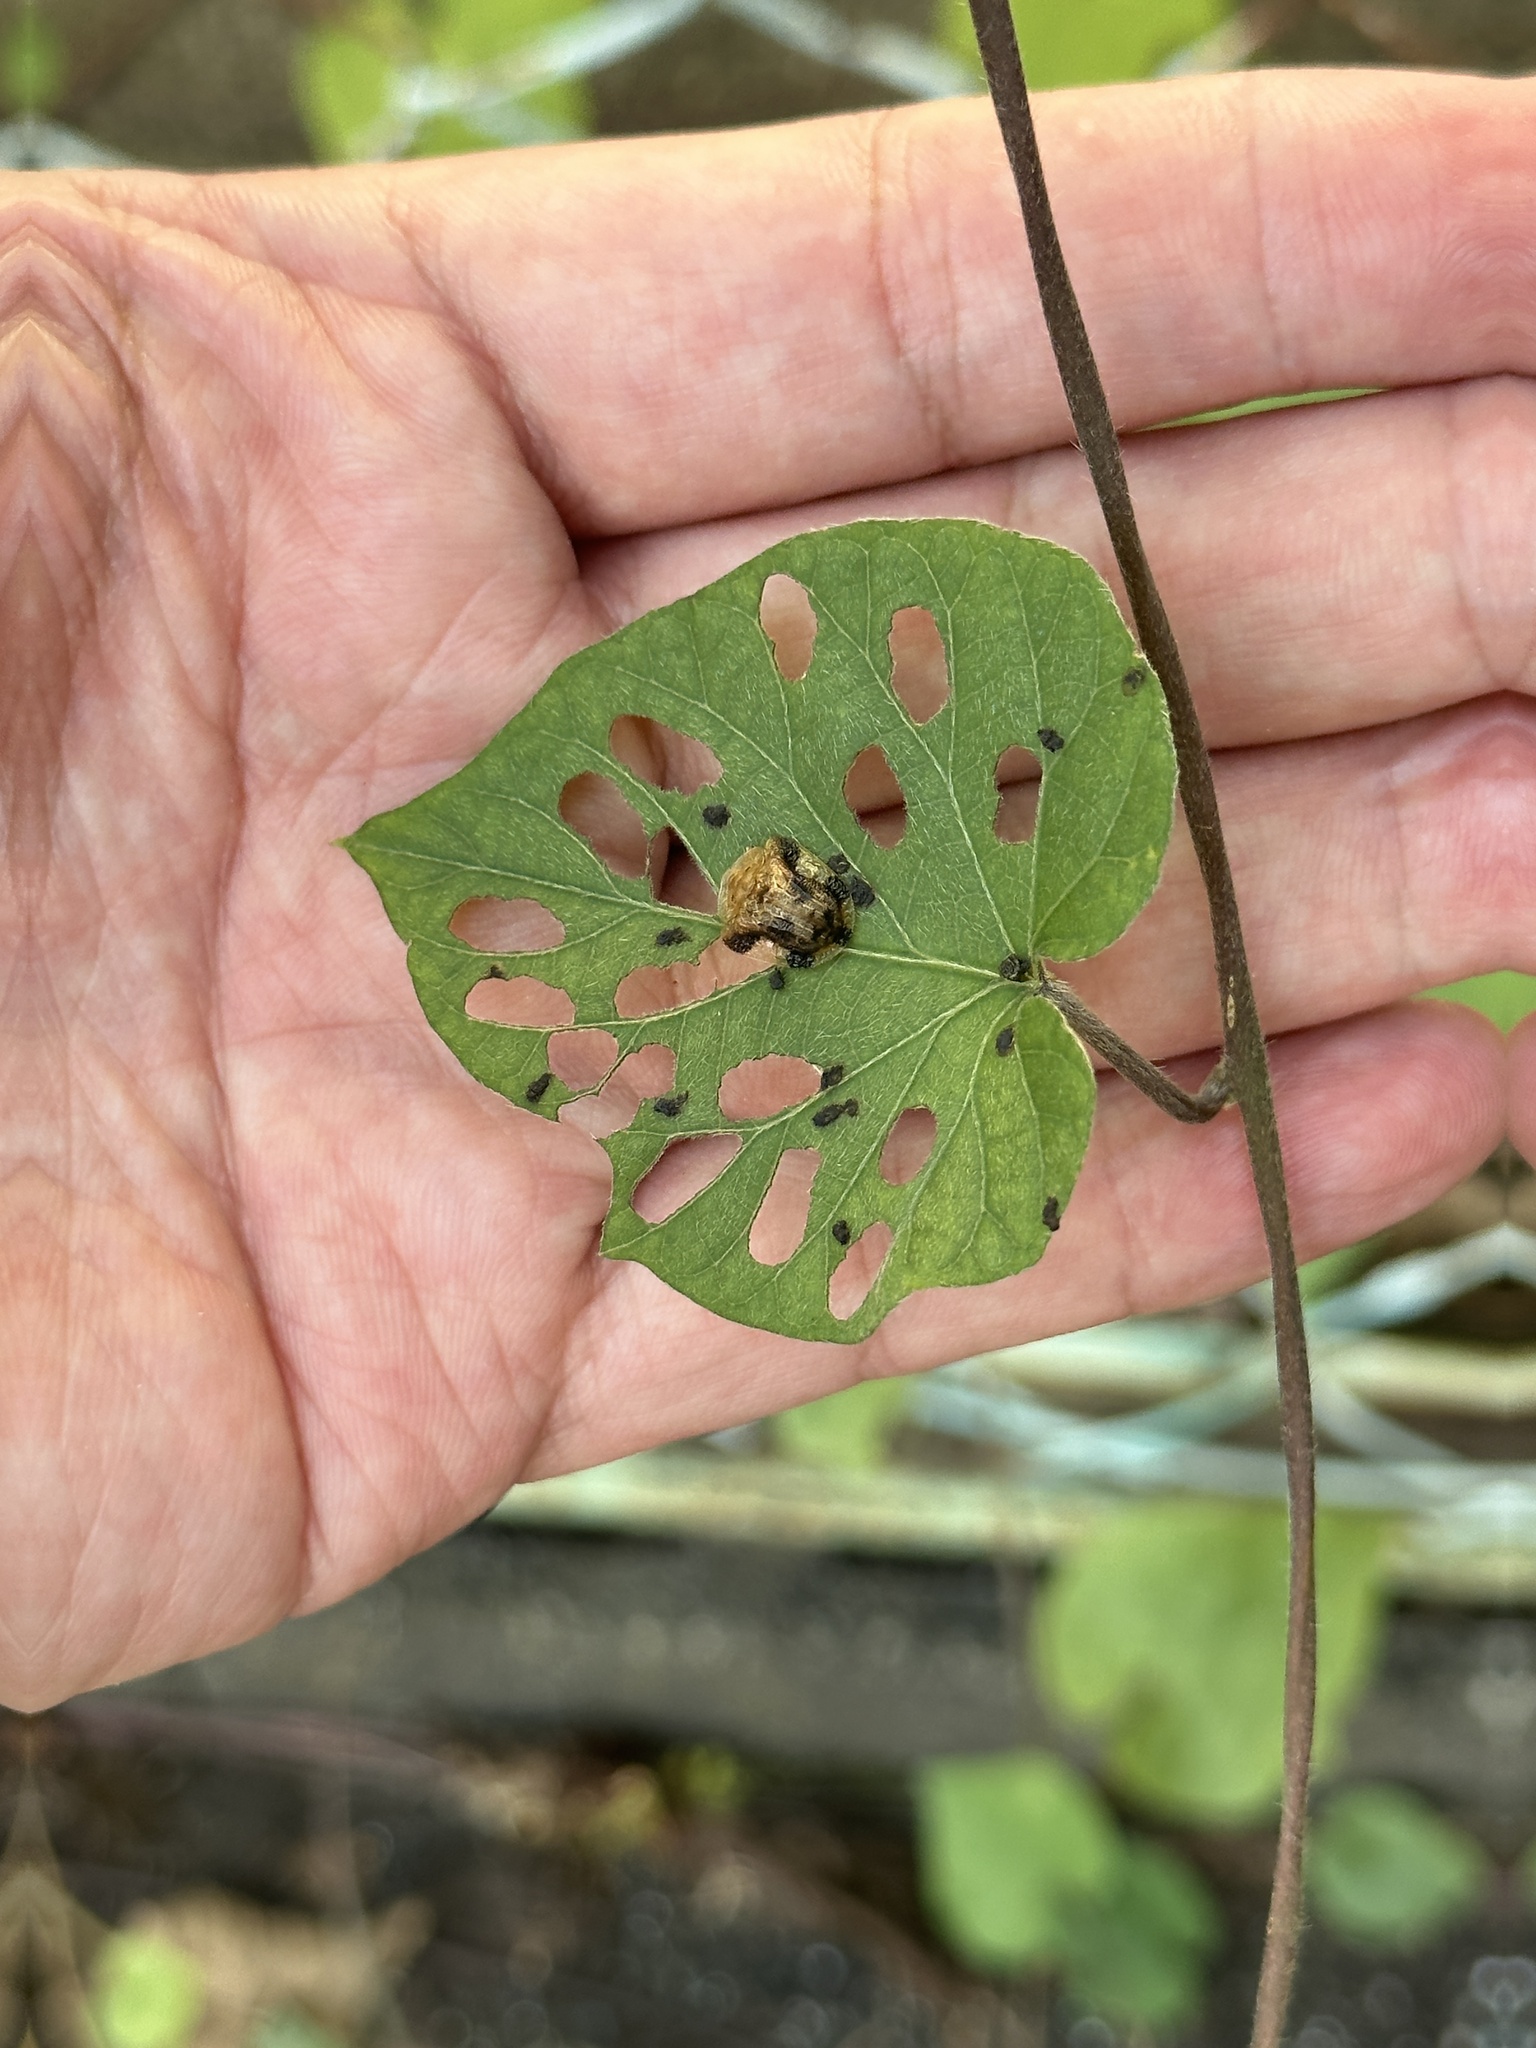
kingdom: Animalia
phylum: Arthropoda
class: Insecta
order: Coleoptera
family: Chrysomelidae
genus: Laccoptera
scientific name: Laccoptera nepalensis
